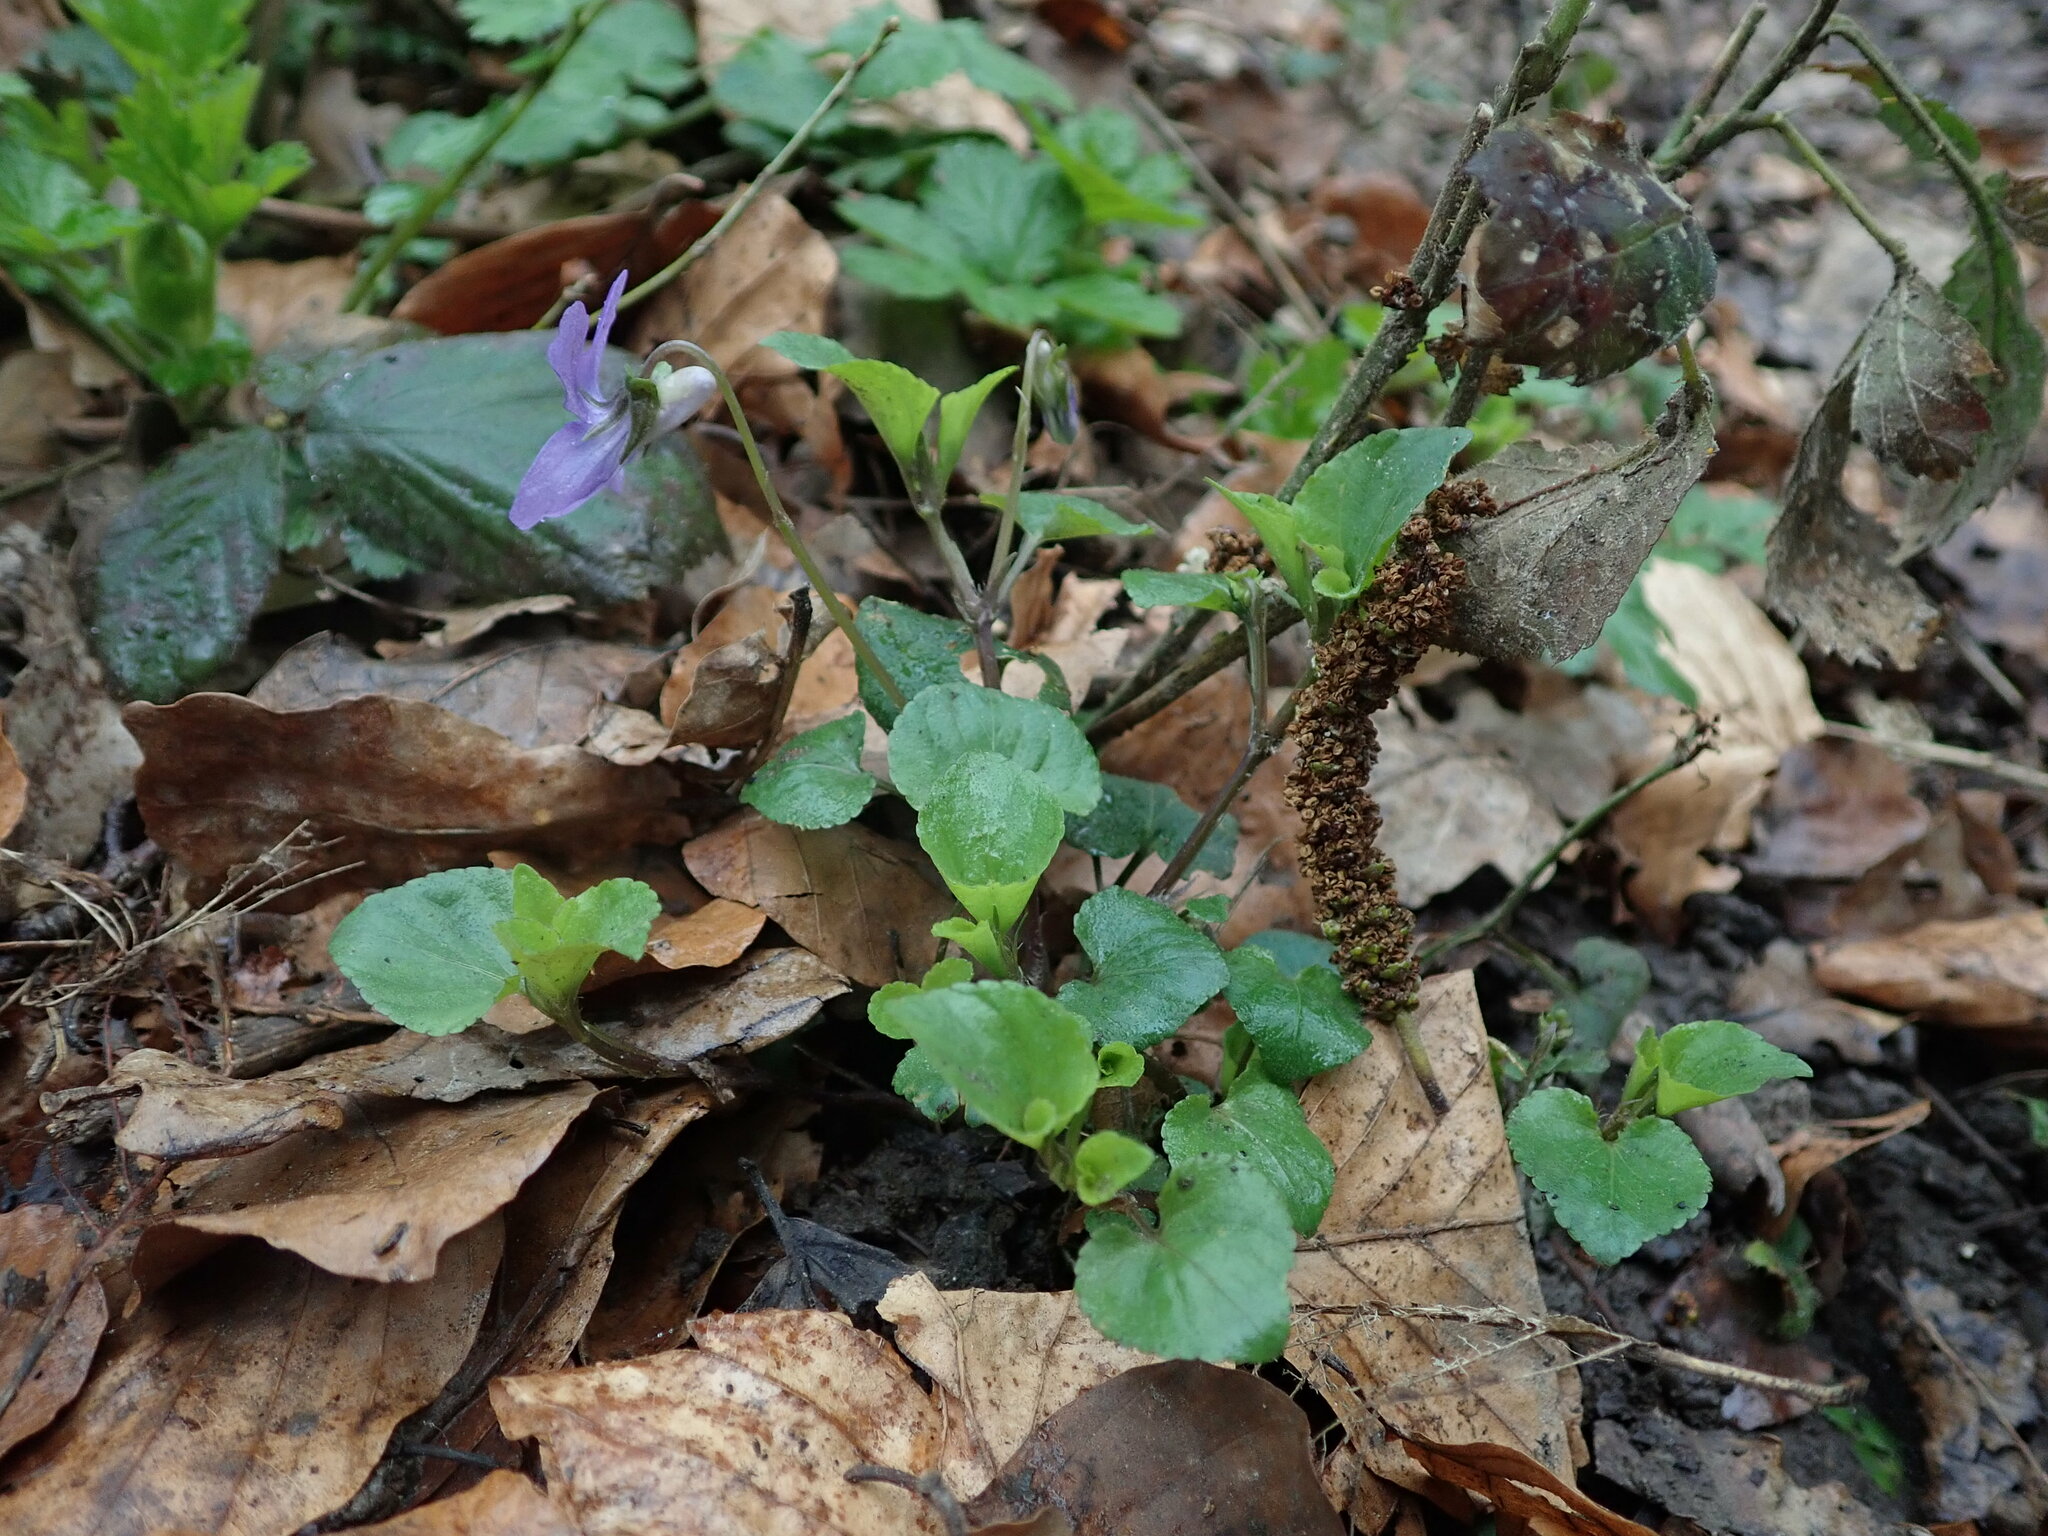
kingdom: Plantae
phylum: Tracheophyta
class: Magnoliopsida
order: Malpighiales
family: Violaceae
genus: Viola
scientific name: Viola riviniana
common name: Common dog-violet
